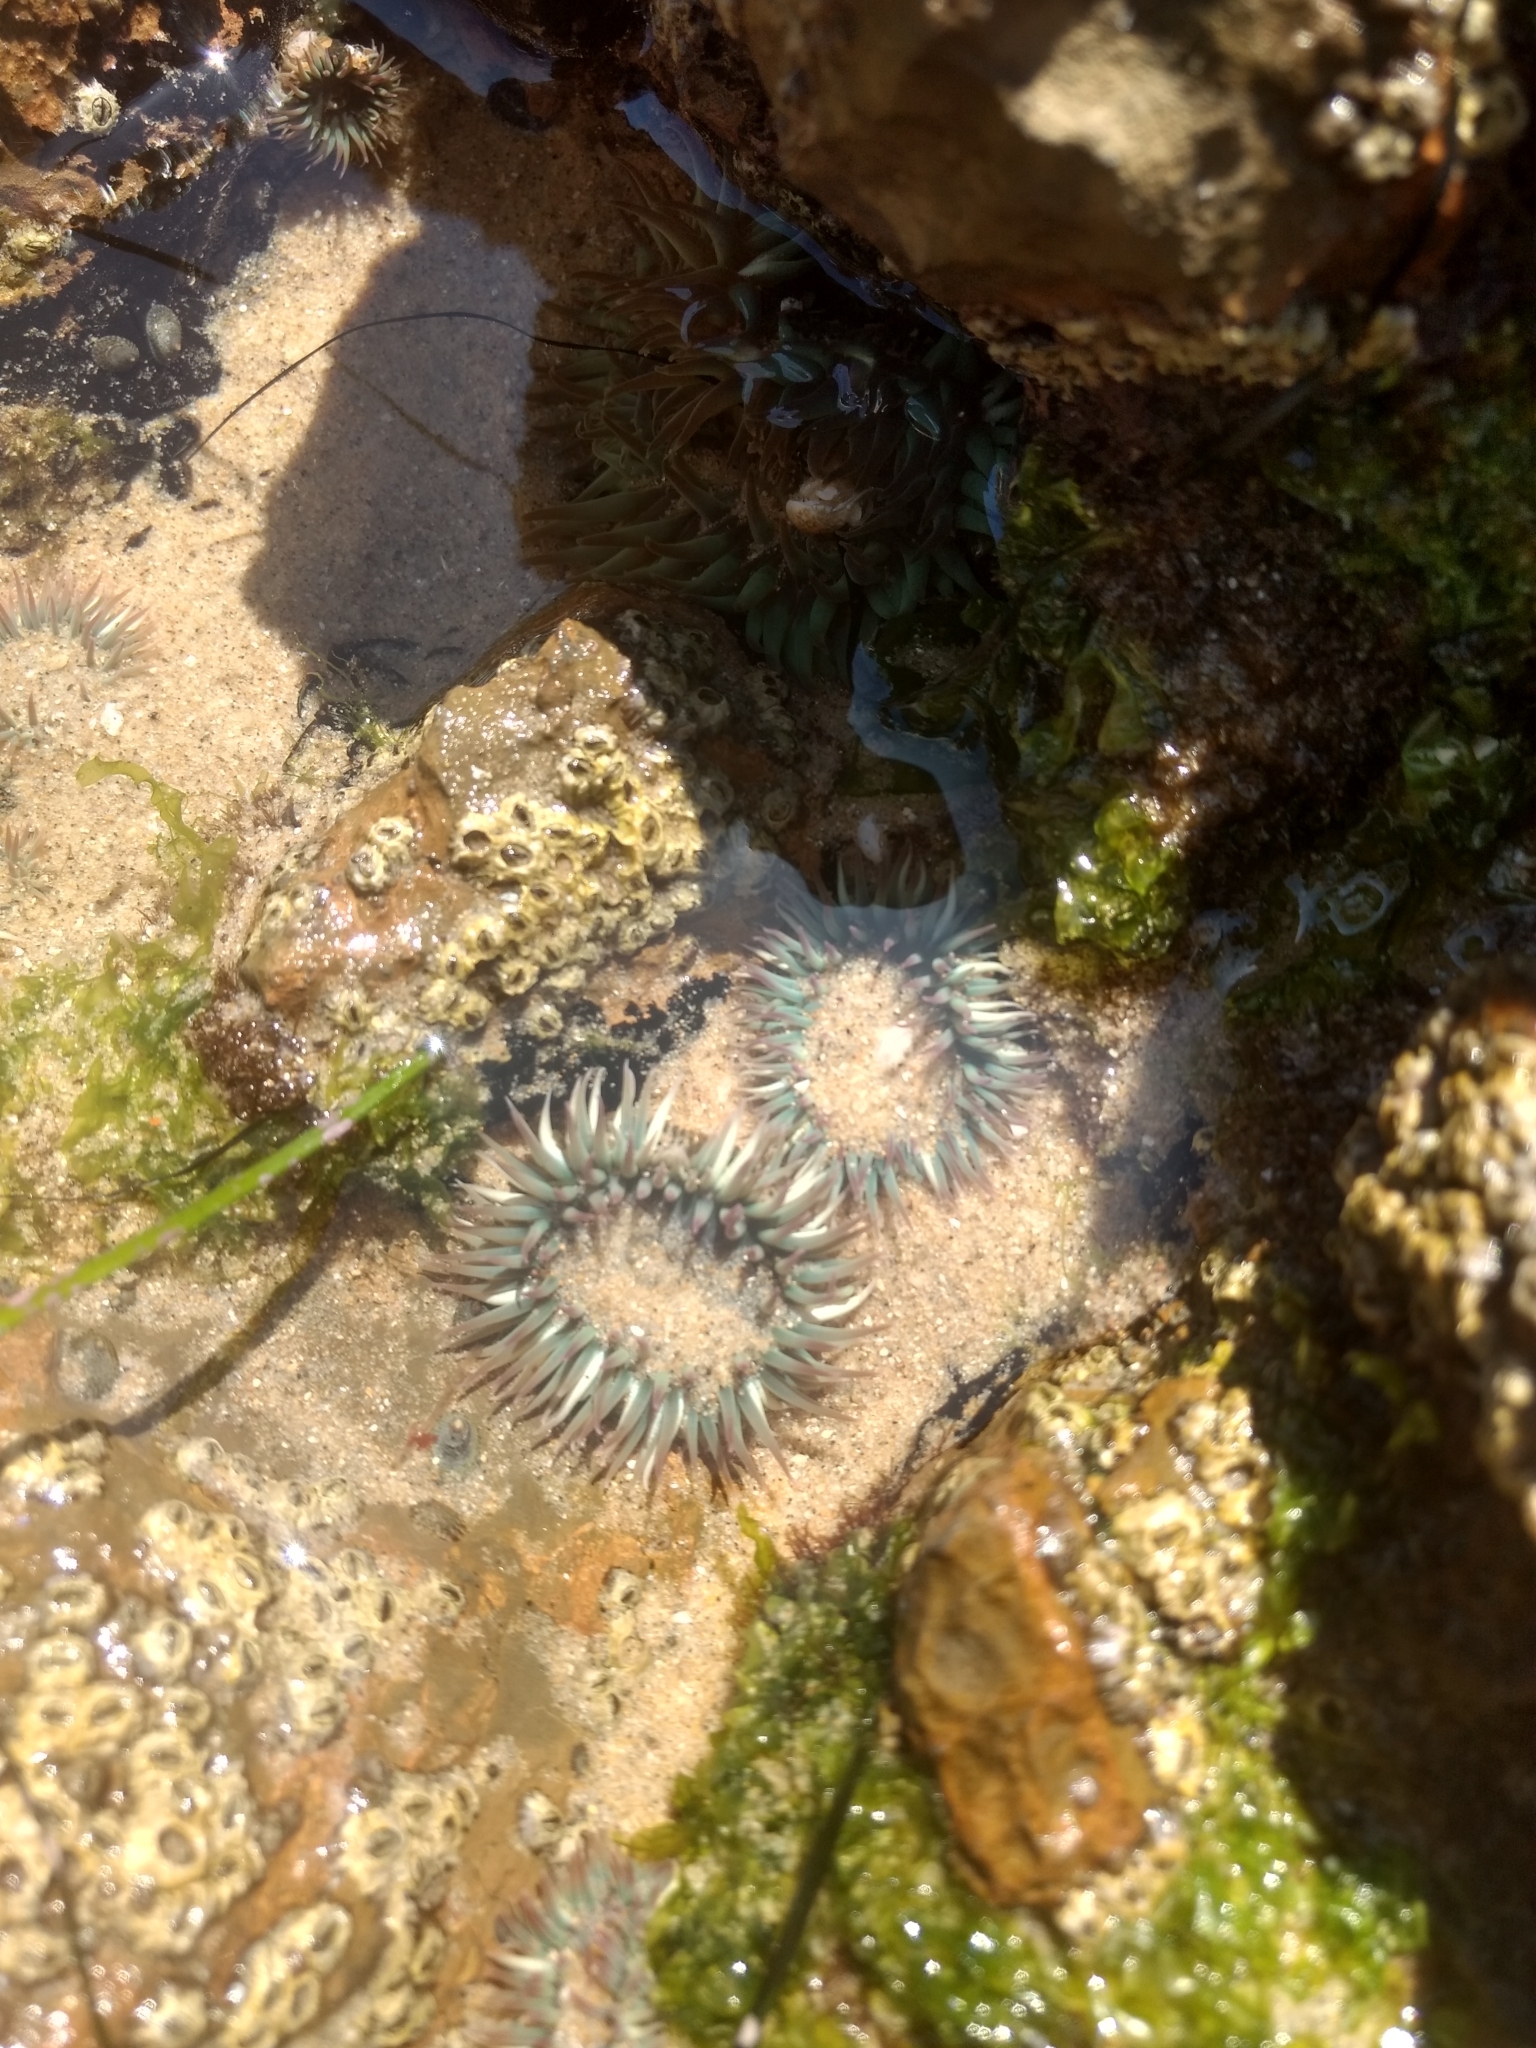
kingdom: Animalia
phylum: Cnidaria
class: Anthozoa
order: Actiniaria
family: Actiniidae
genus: Anthopleura
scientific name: Anthopleura elegantissima
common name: Clonal anemone
